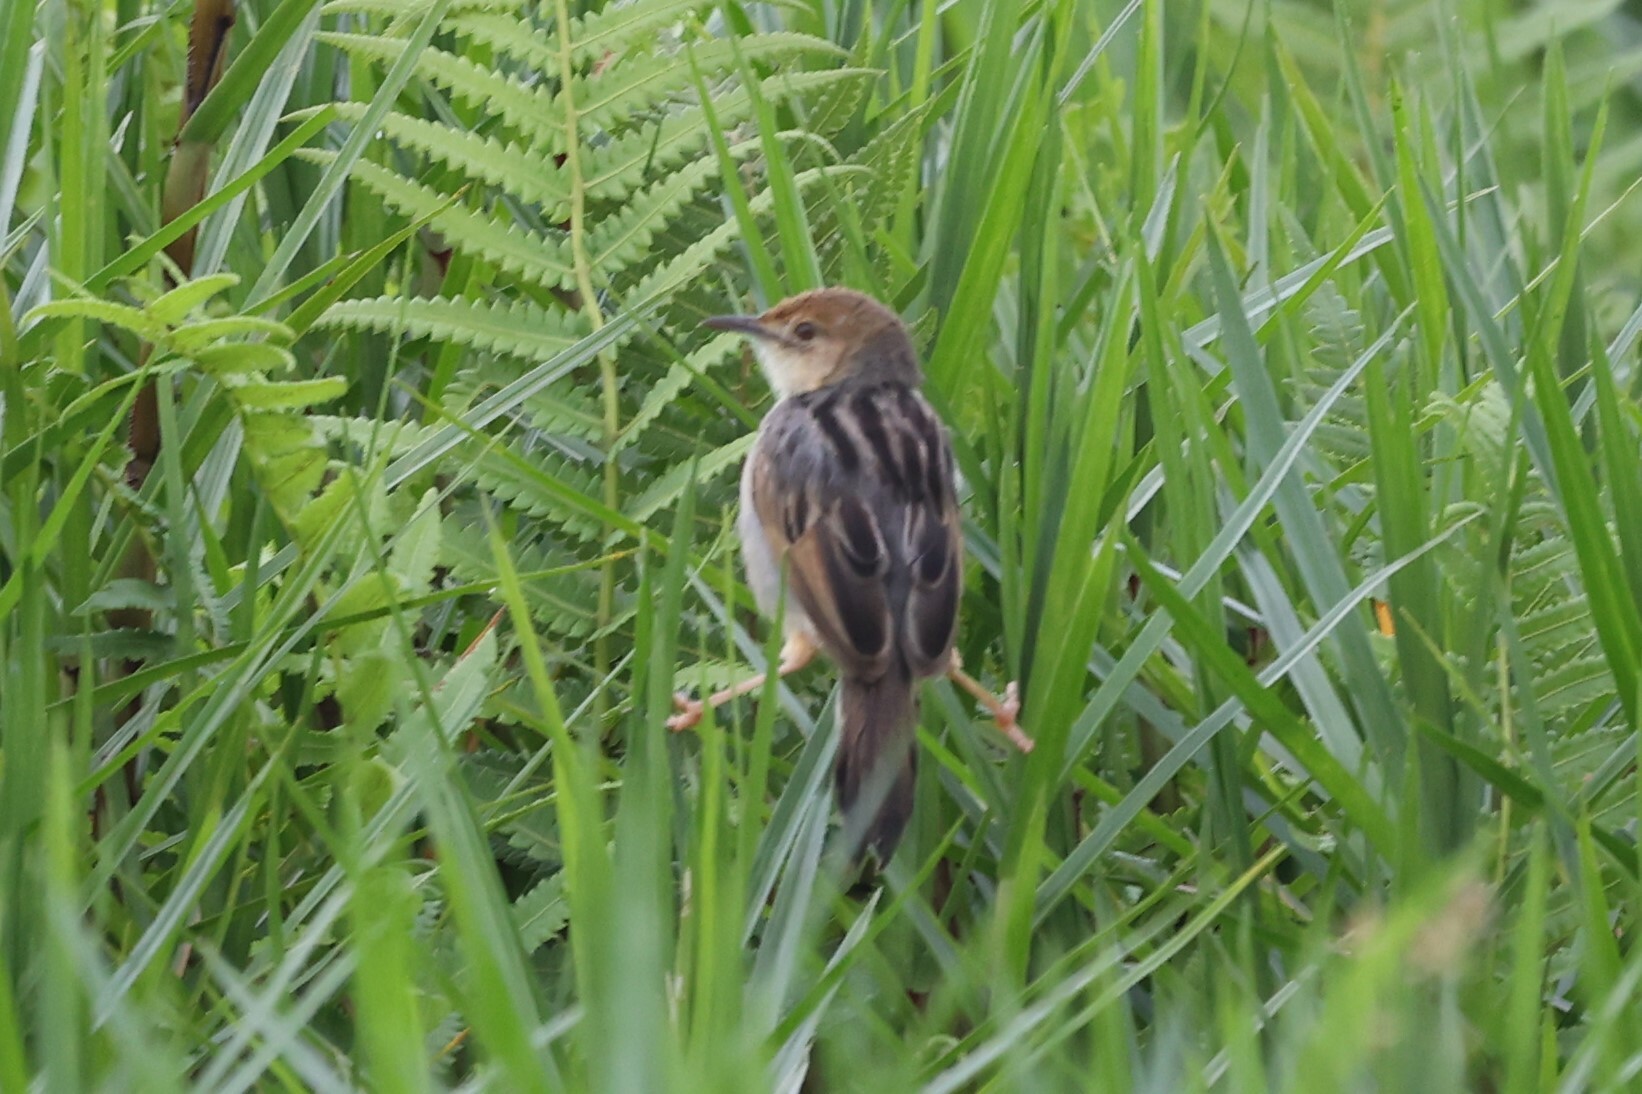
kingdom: Animalia
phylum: Chordata
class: Aves
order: Passeriformes
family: Cisticolidae
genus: Cisticola
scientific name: Cisticola marginatus
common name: Winding cisticola
